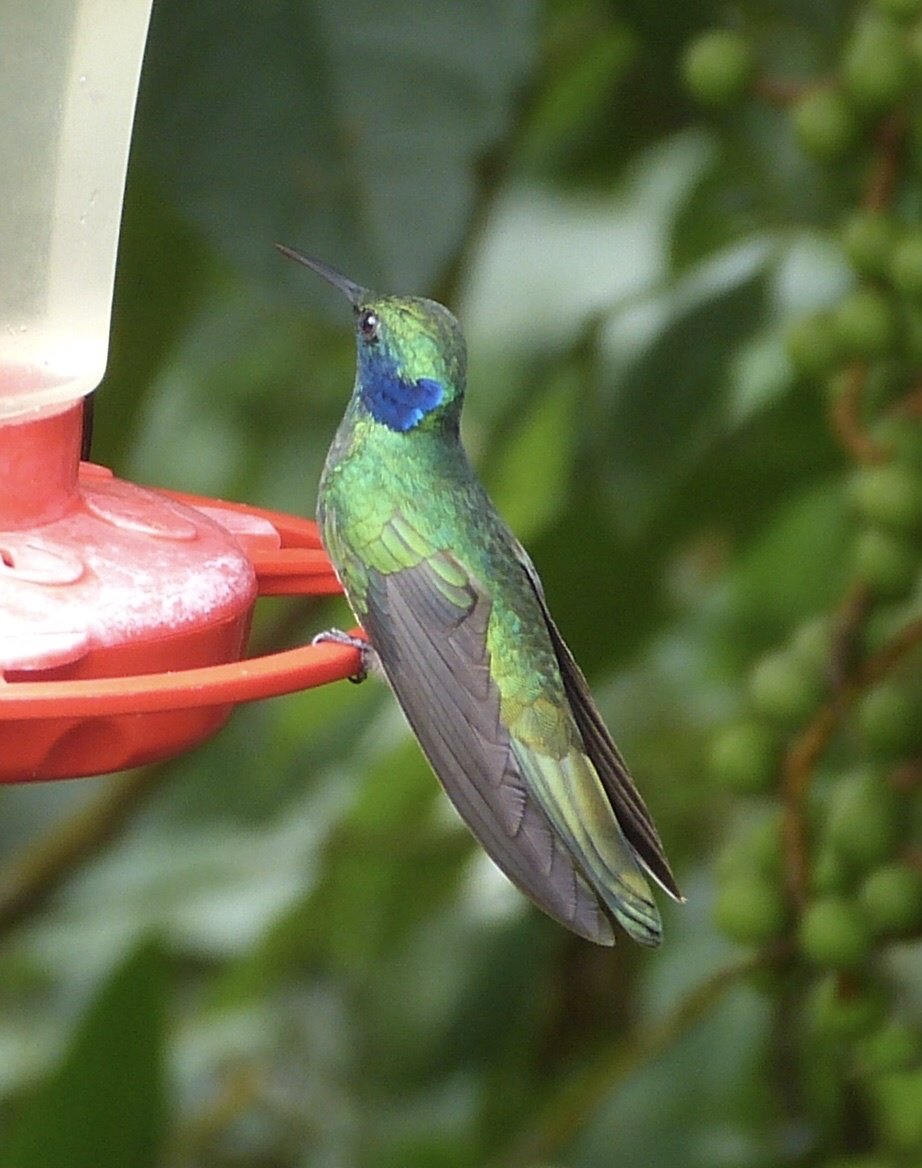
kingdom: Animalia
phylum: Chordata
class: Aves
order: Apodiformes
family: Trochilidae
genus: Colibri
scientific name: Colibri cyanotus
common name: Lesser violetear
